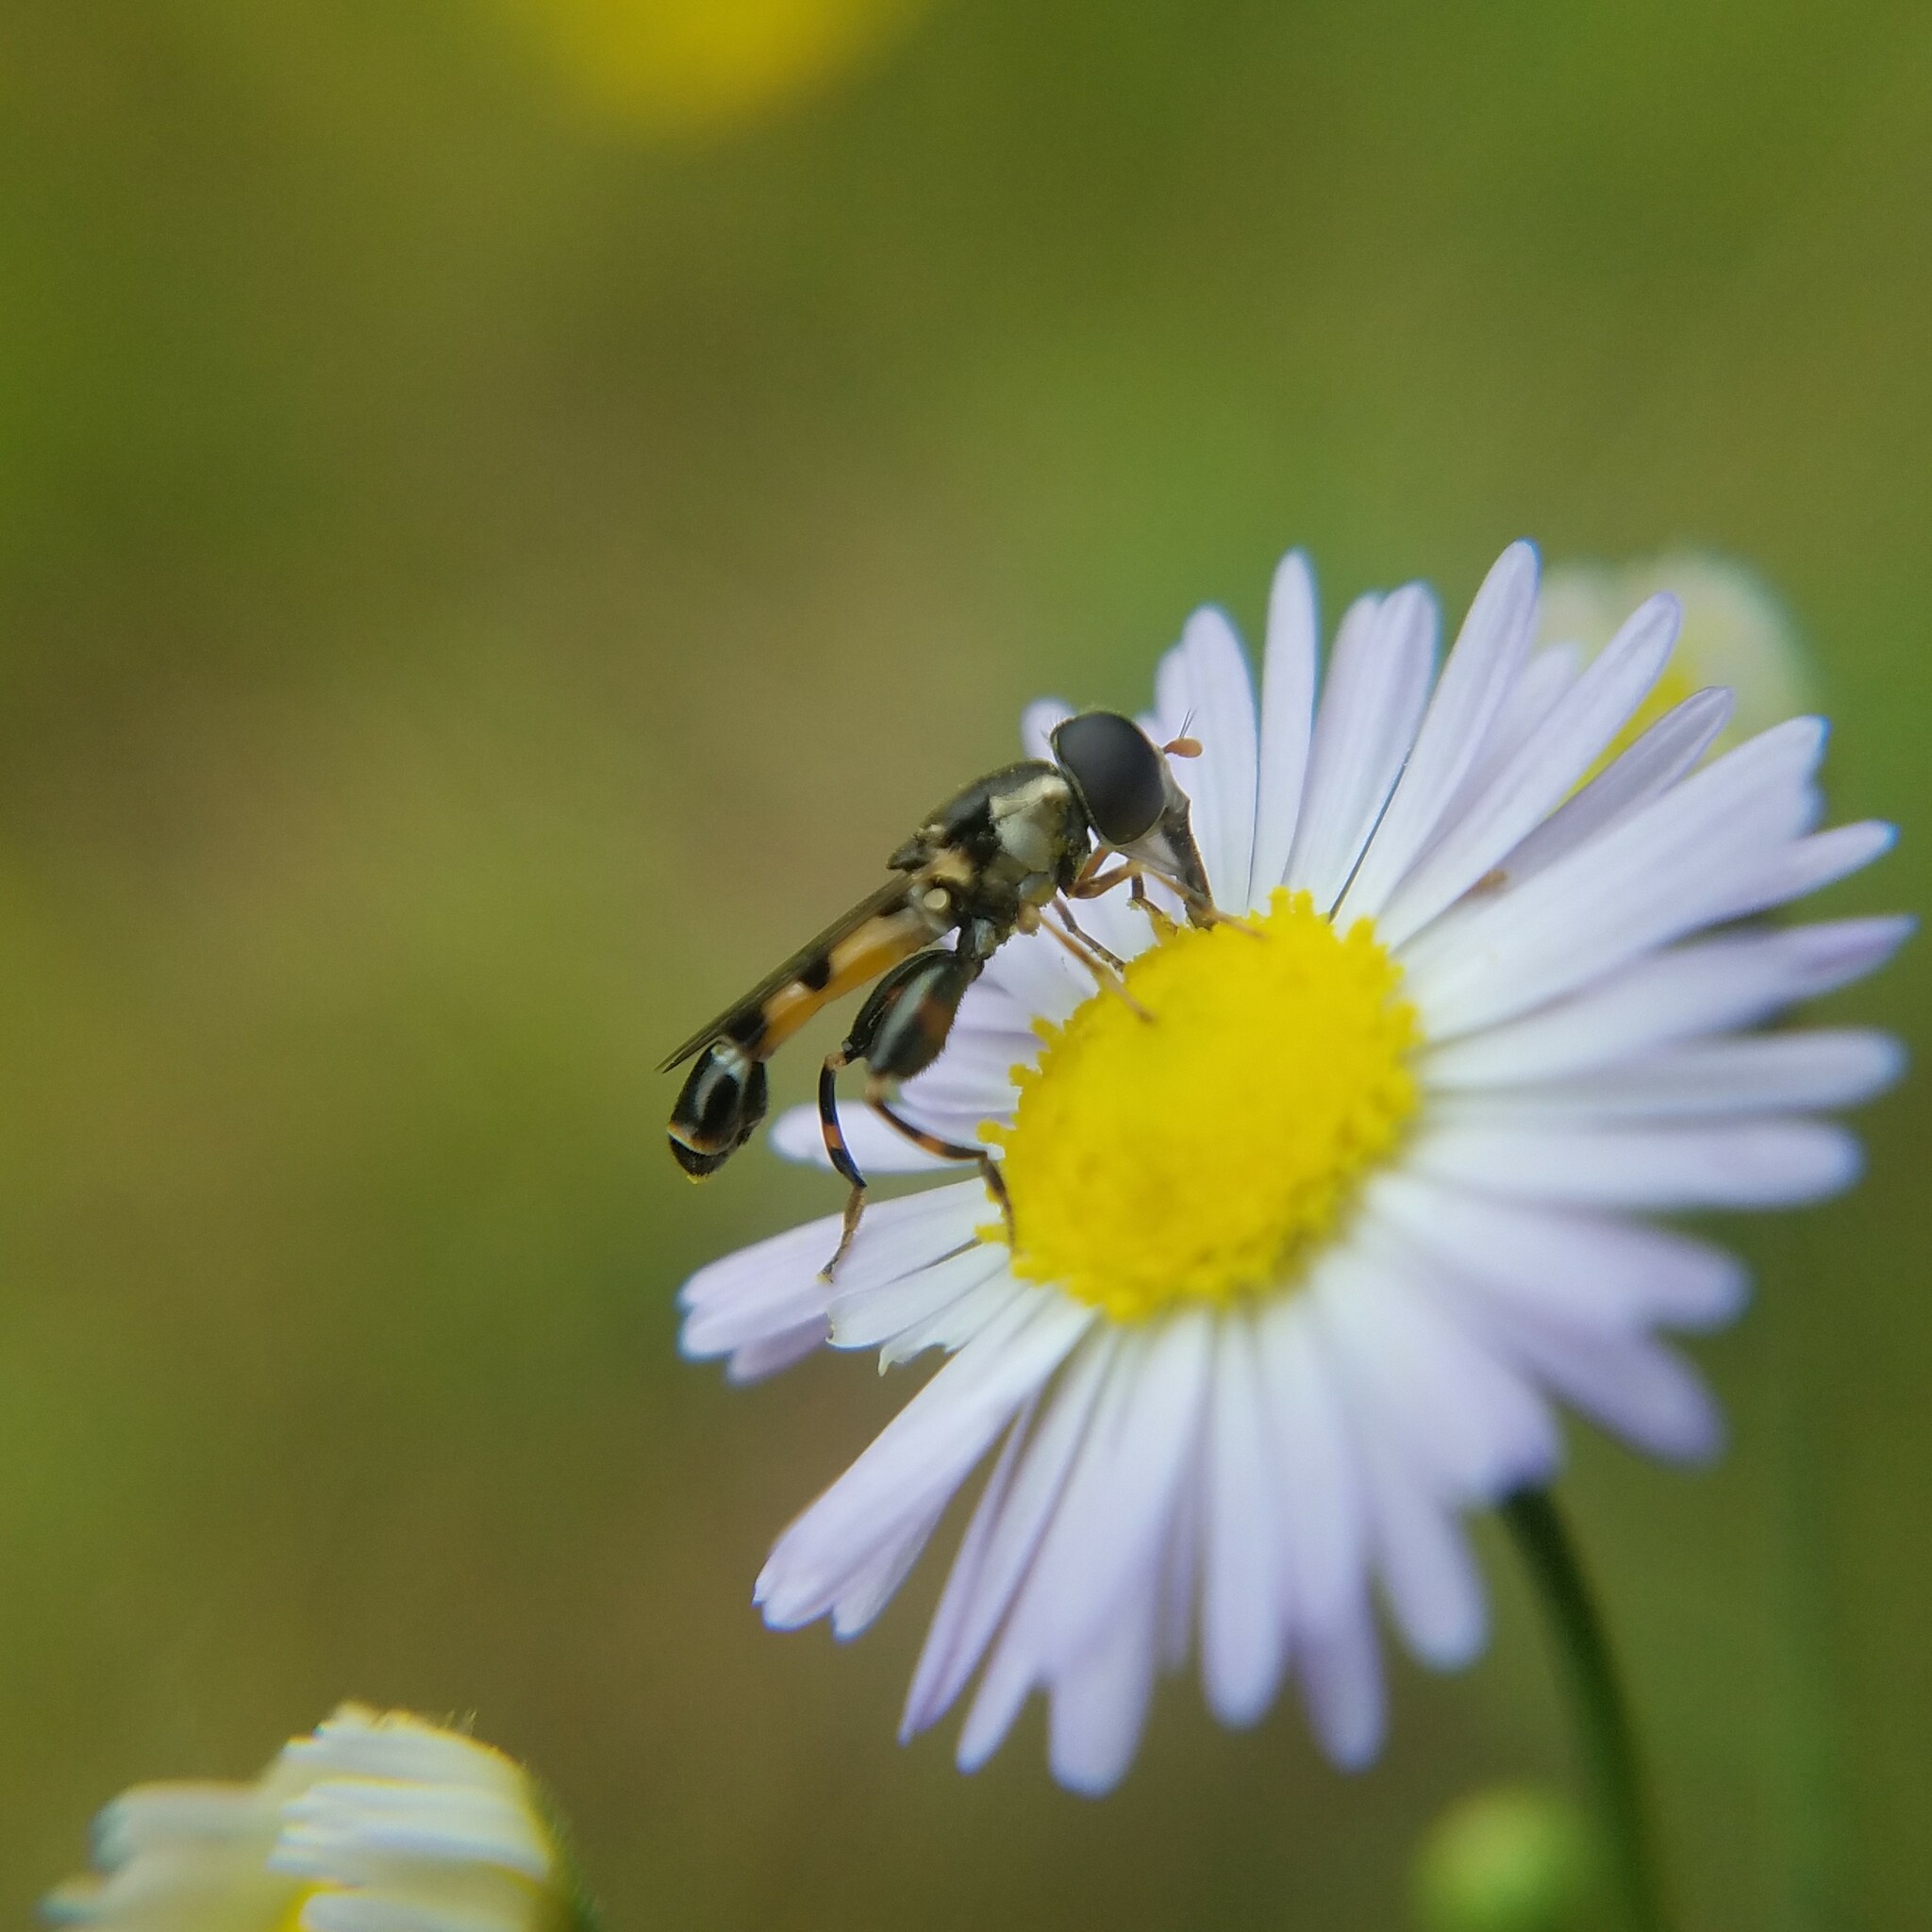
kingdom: Animalia
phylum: Arthropoda
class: Insecta
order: Diptera
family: Syrphidae
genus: Syritta
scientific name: Syritta pipiens
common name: Hover fly
